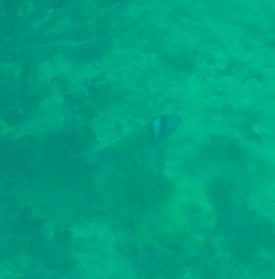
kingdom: Animalia
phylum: Chordata
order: Perciformes
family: Labridae
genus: Thalassoma
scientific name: Thalassoma bifasciatum
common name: Bluehead wrasse
